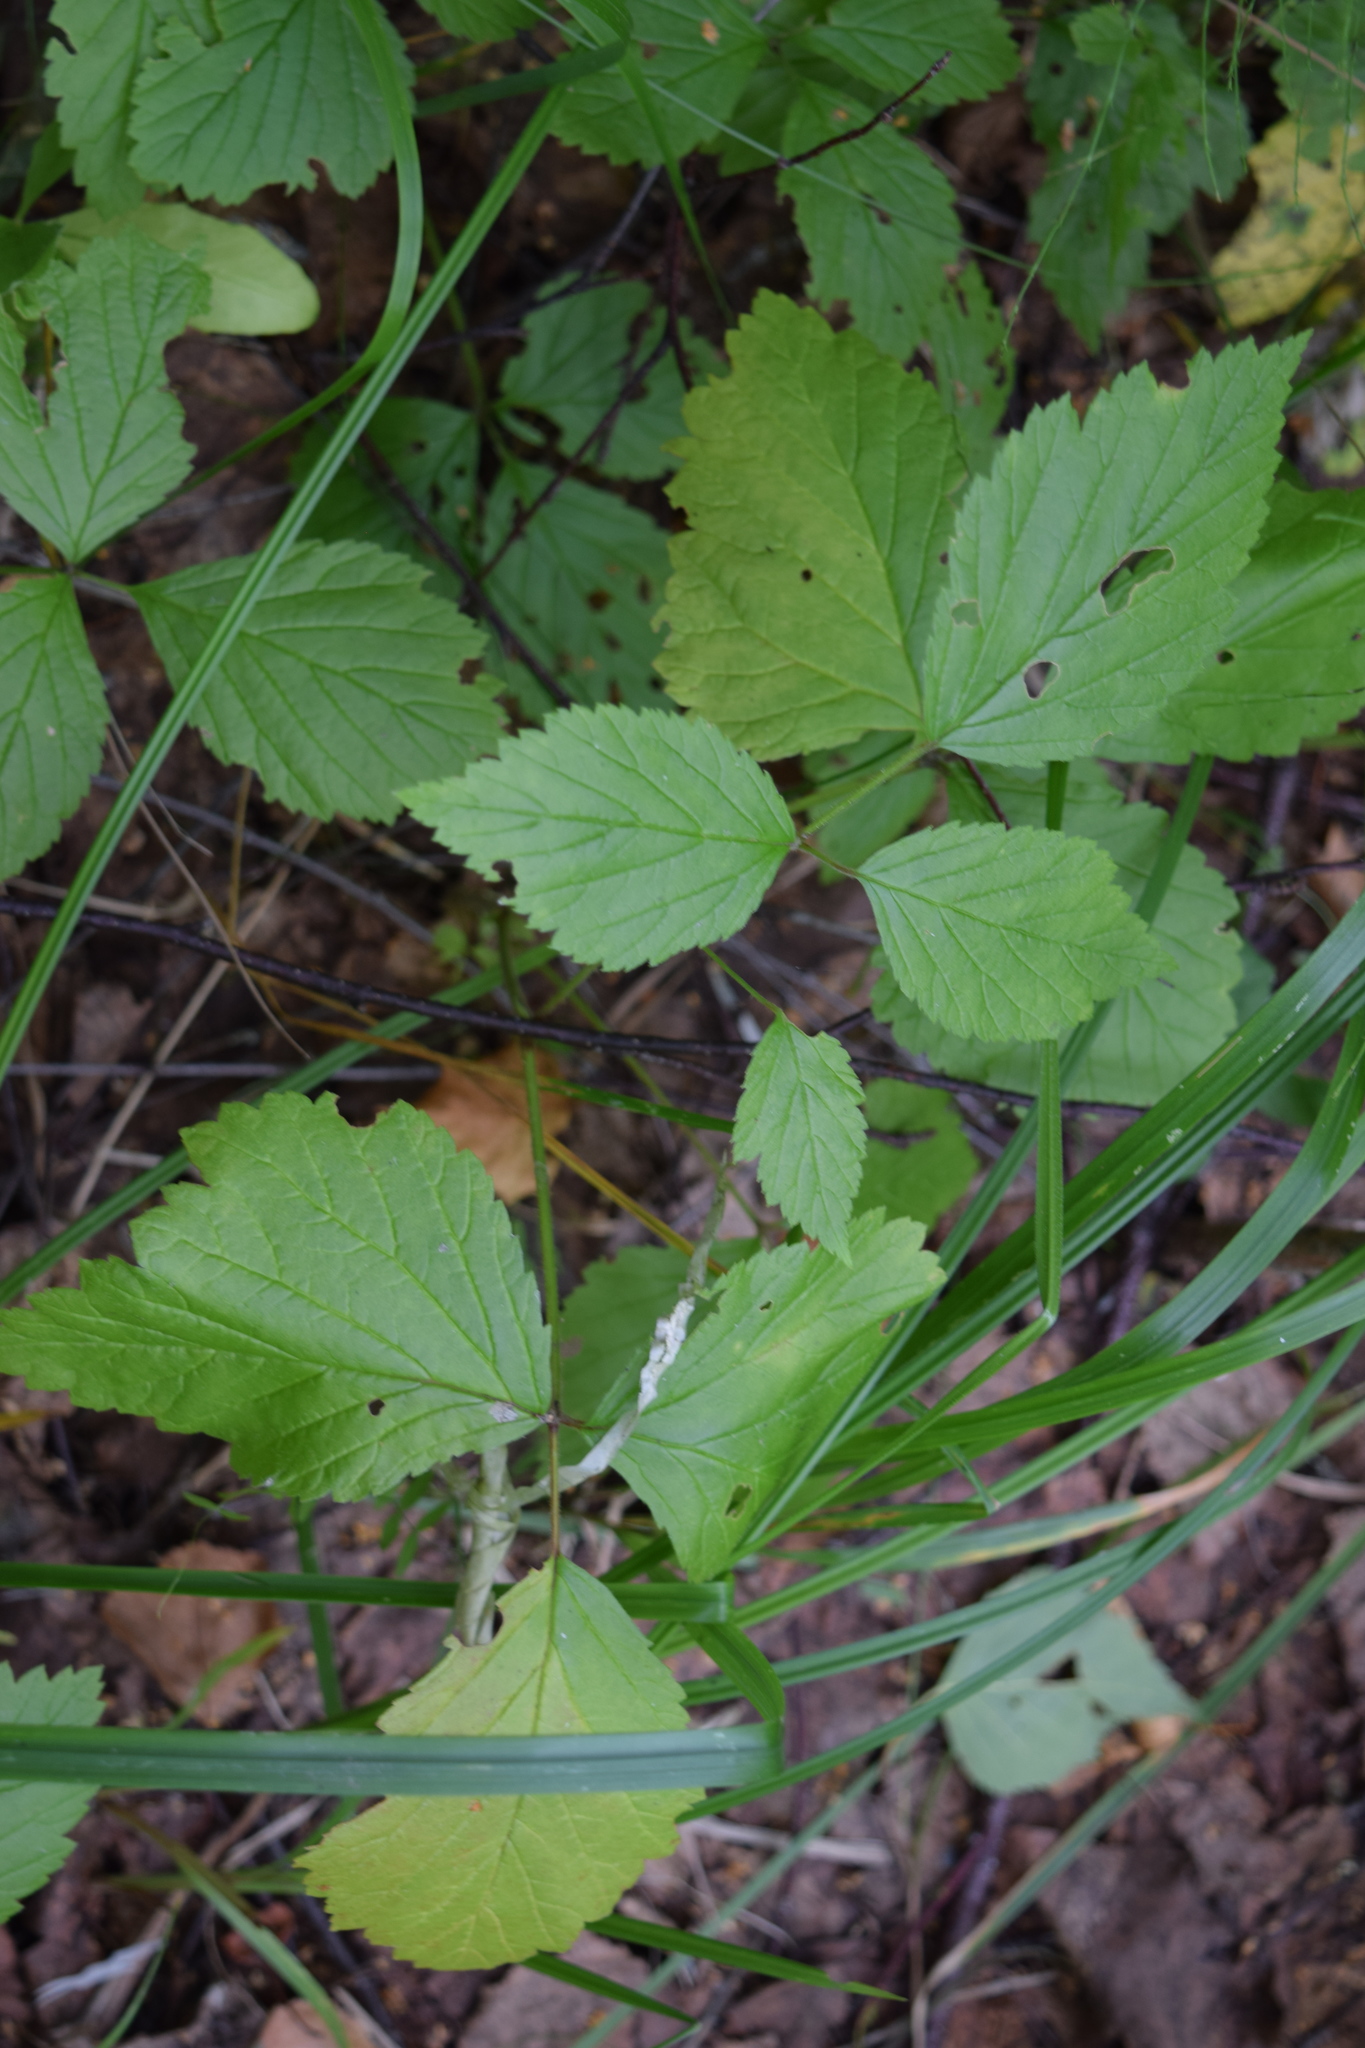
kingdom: Plantae
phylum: Tracheophyta
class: Magnoliopsida
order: Rosales
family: Rosaceae
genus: Rubus
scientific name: Rubus saxatilis
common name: Stone bramble
